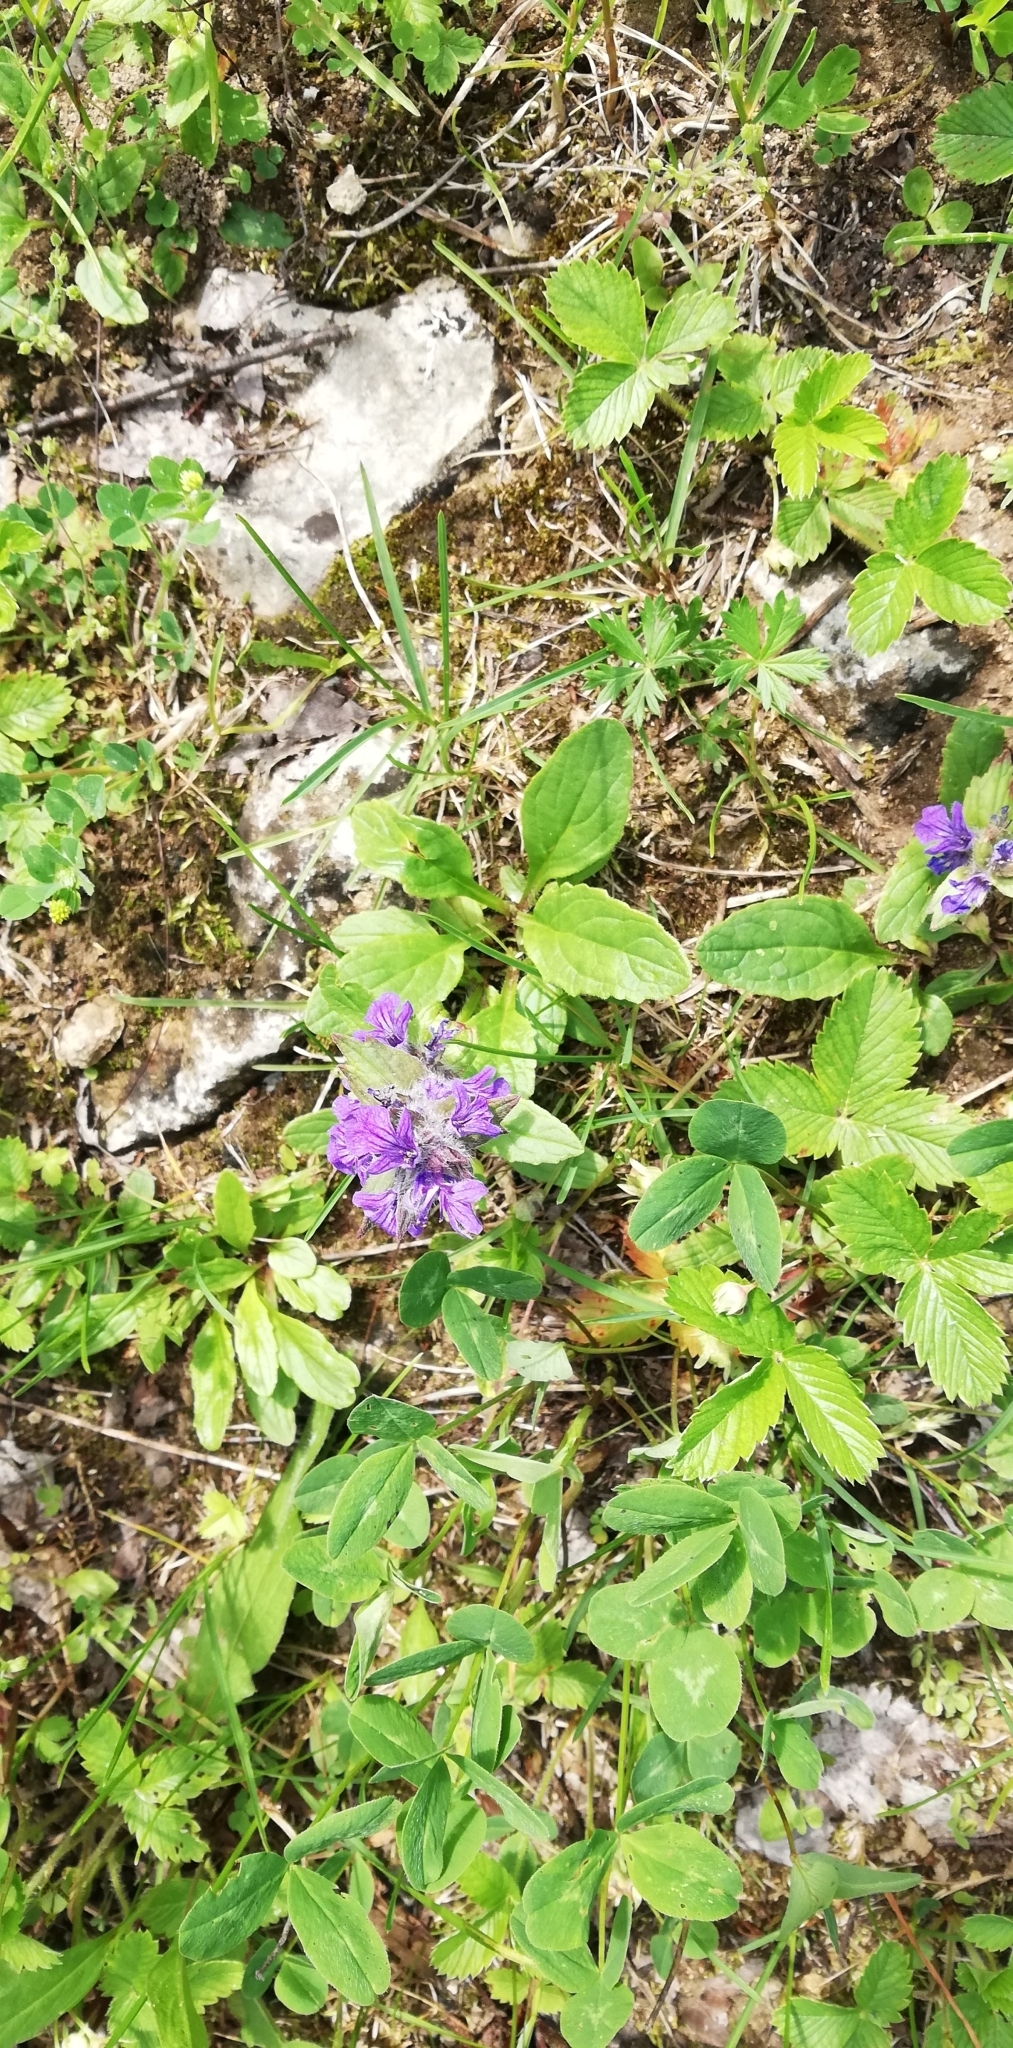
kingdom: Plantae
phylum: Tracheophyta
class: Magnoliopsida
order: Lamiales
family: Lamiaceae
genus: Ajuga
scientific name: Ajuga genevensis
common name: Blue bugle
